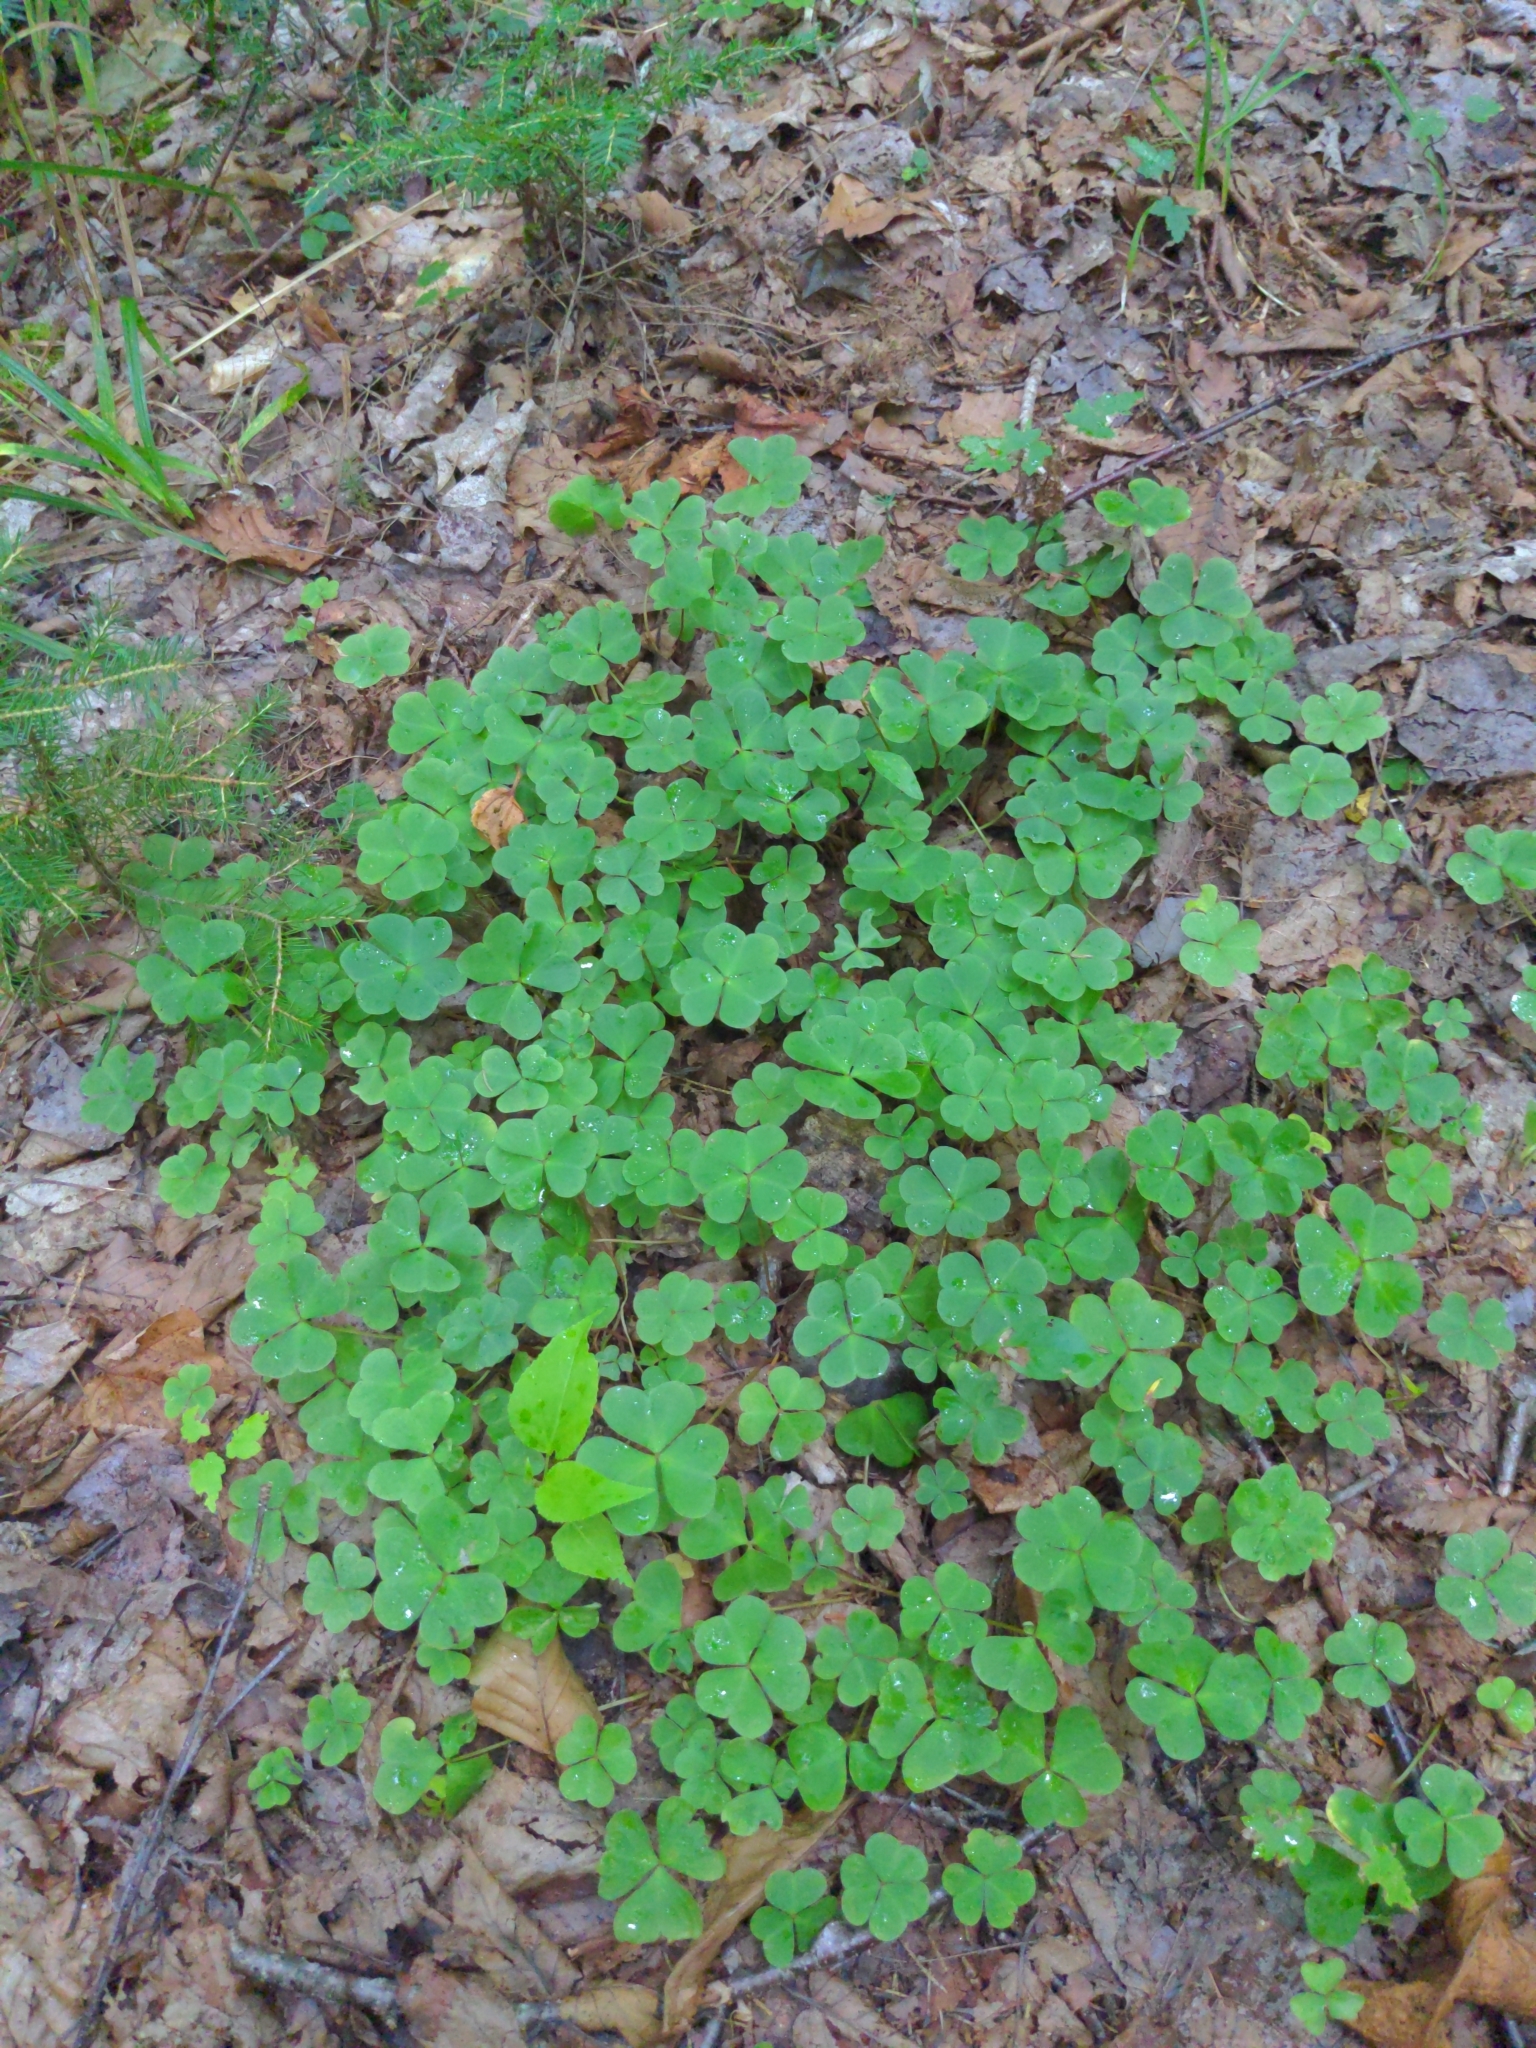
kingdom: Plantae
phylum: Tracheophyta
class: Magnoliopsida
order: Oxalidales
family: Oxalidaceae
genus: Oxalis
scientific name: Oxalis montana
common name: American wood-sorrel
